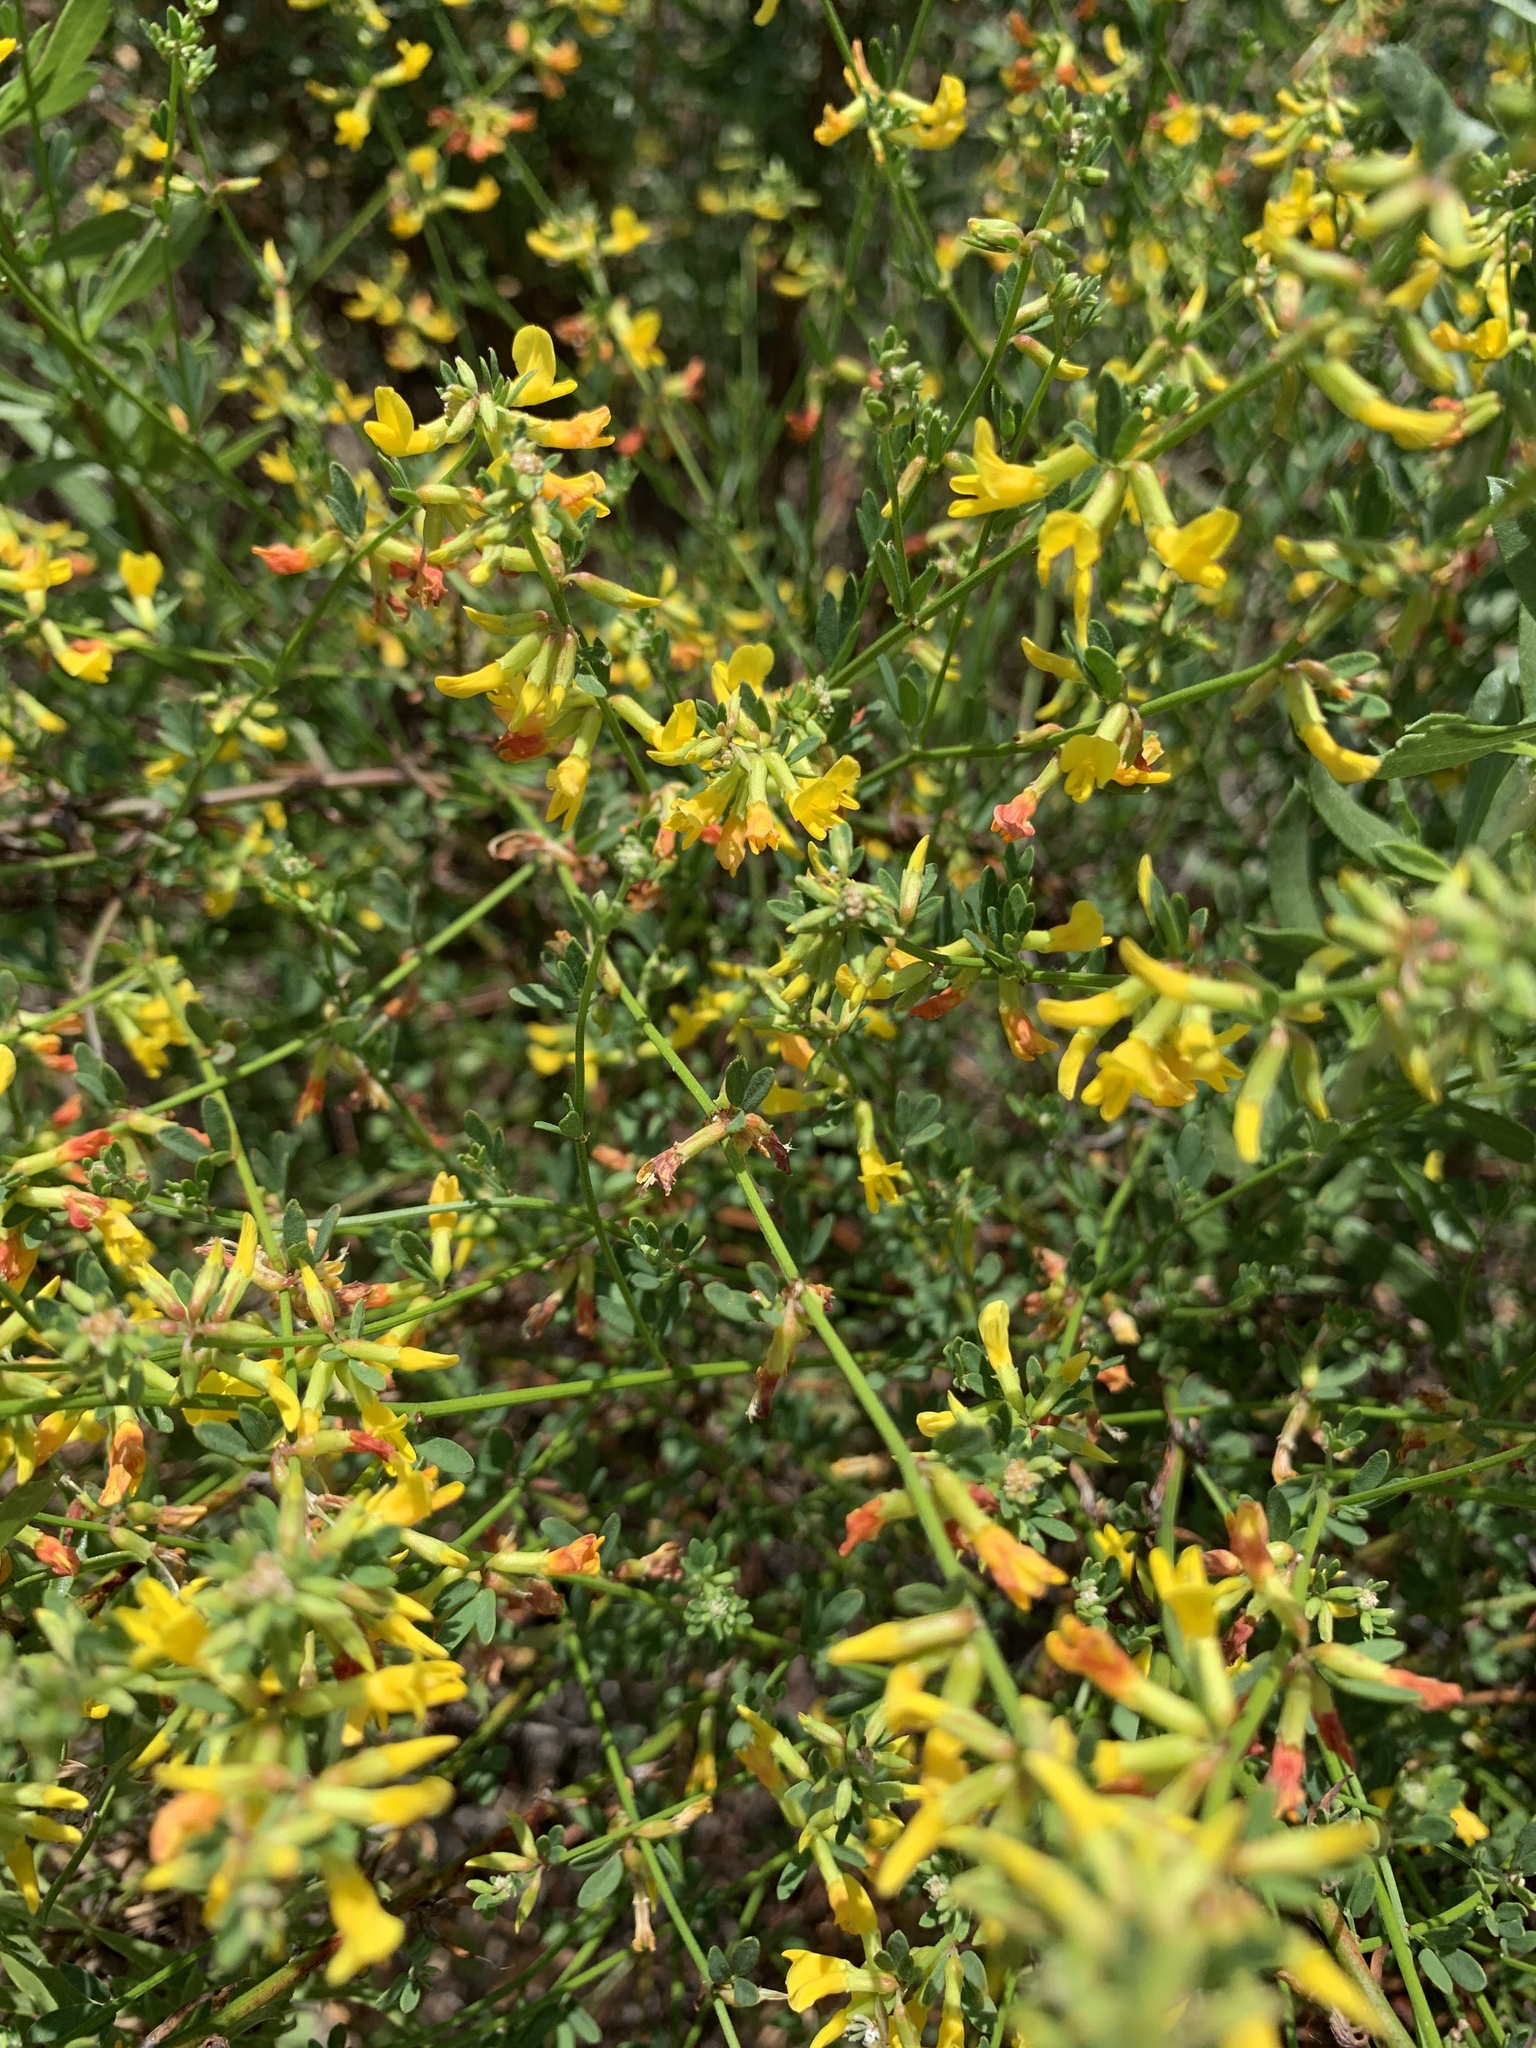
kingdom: Plantae
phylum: Tracheophyta
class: Magnoliopsida
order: Fabales
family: Fabaceae
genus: Acmispon
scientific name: Acmispon glaber
